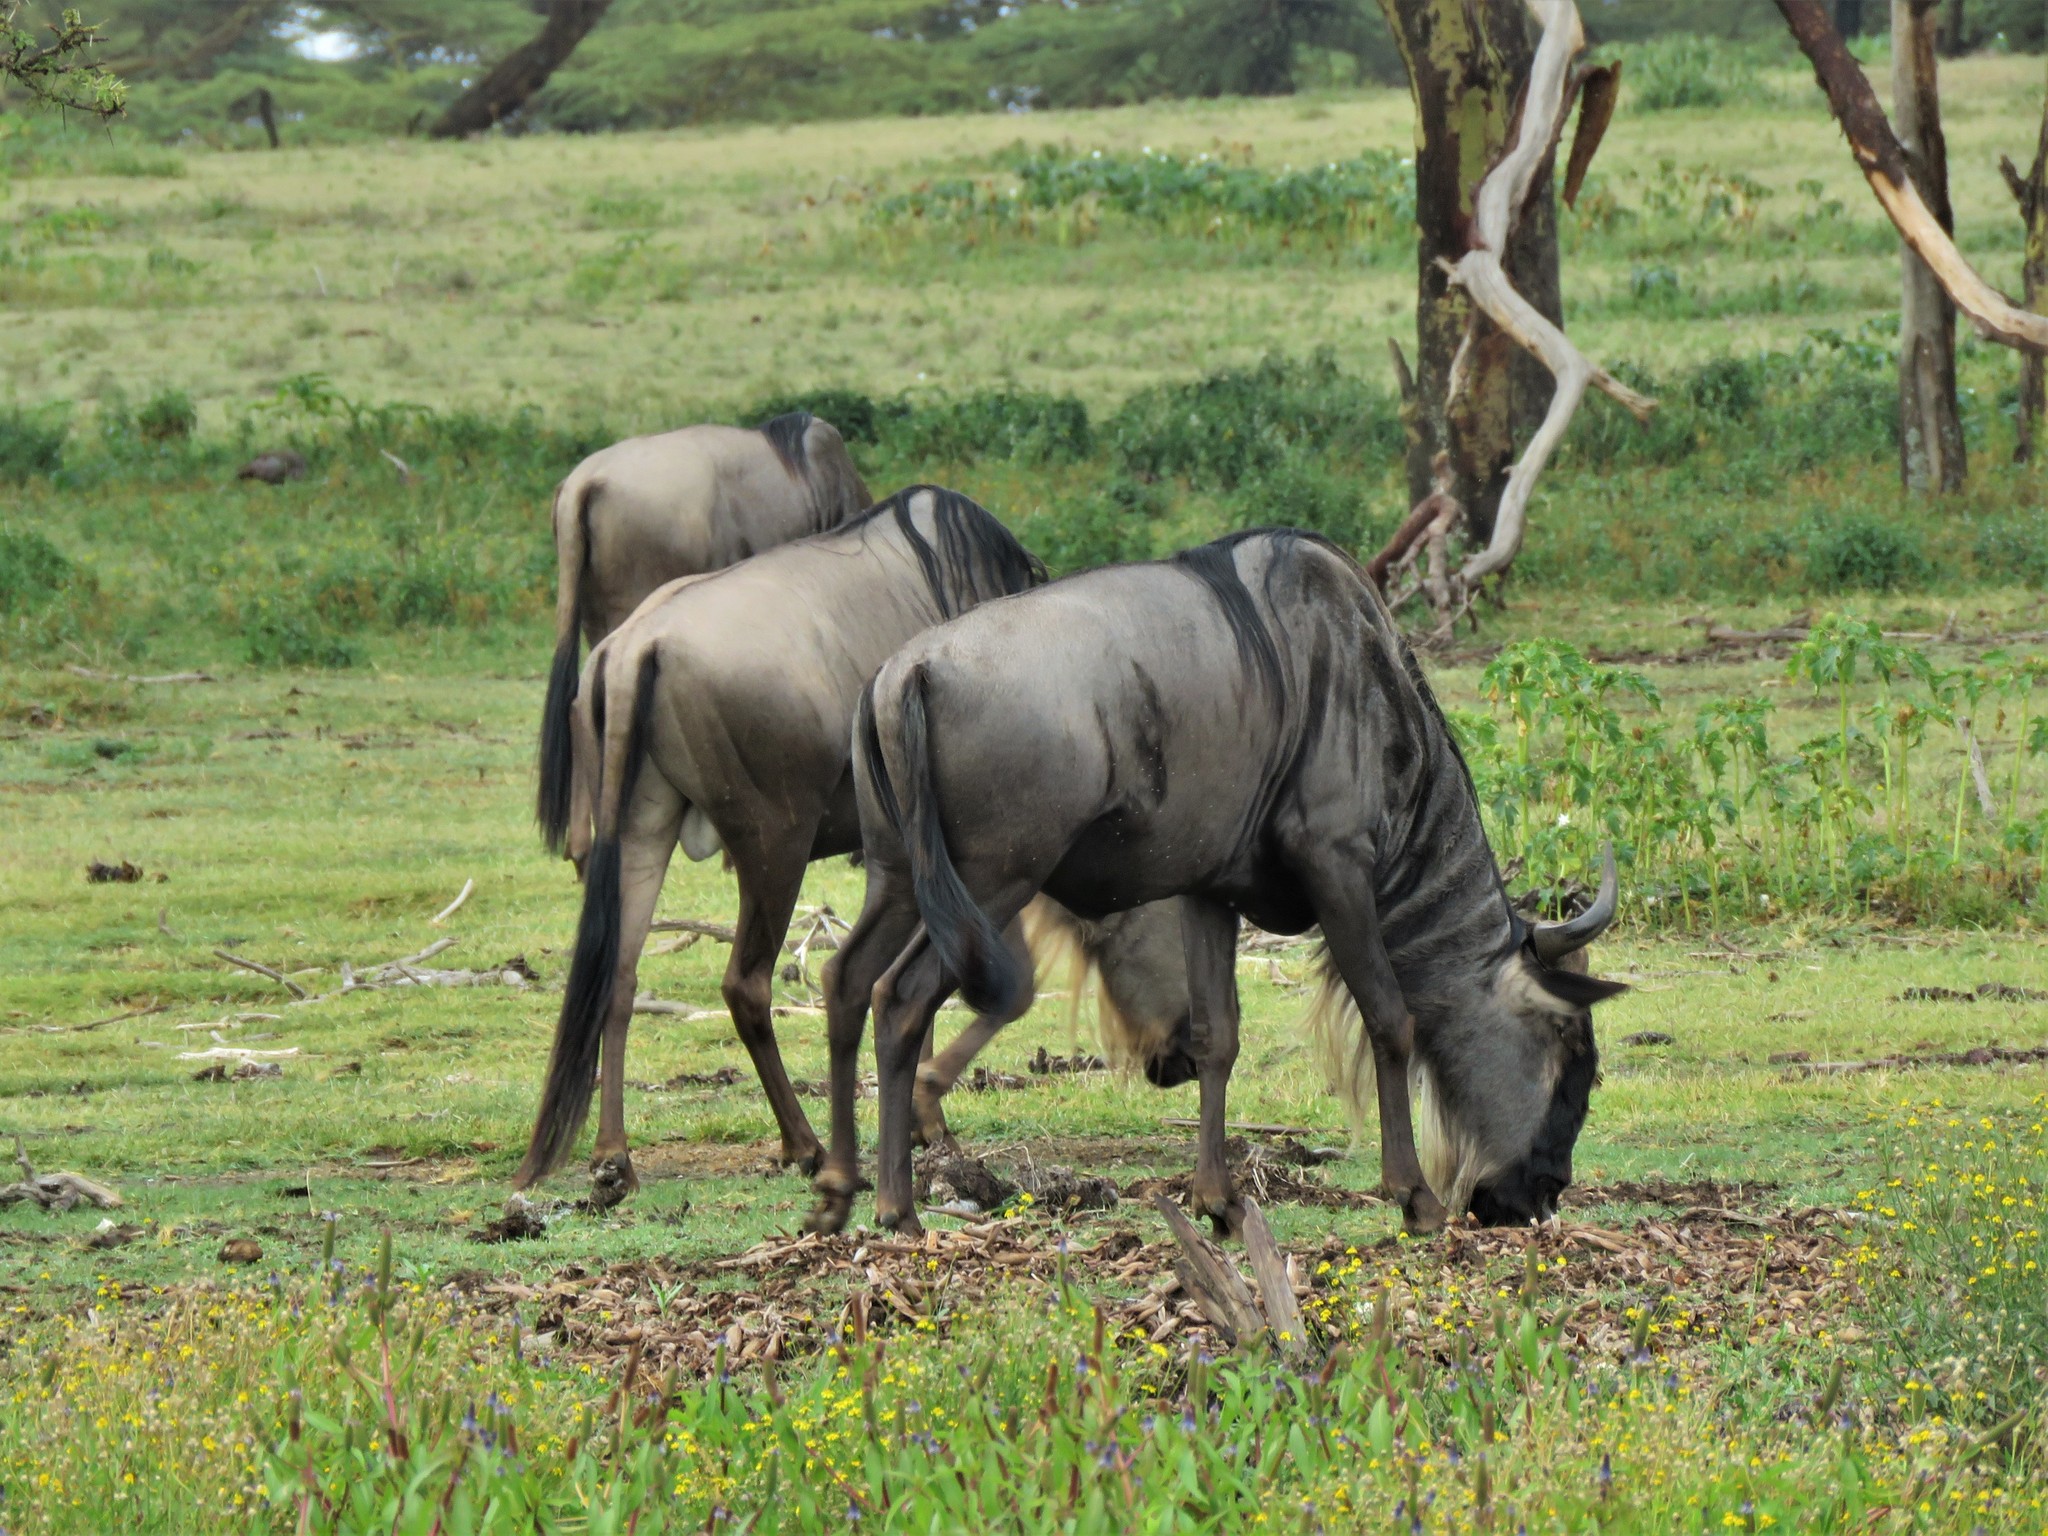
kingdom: Animalia
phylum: Chordata
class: Mammalia
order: Artiodactyla
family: Bovidae
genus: Connochaetes
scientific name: Connochaetes taurinus
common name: Blue wildebeest
